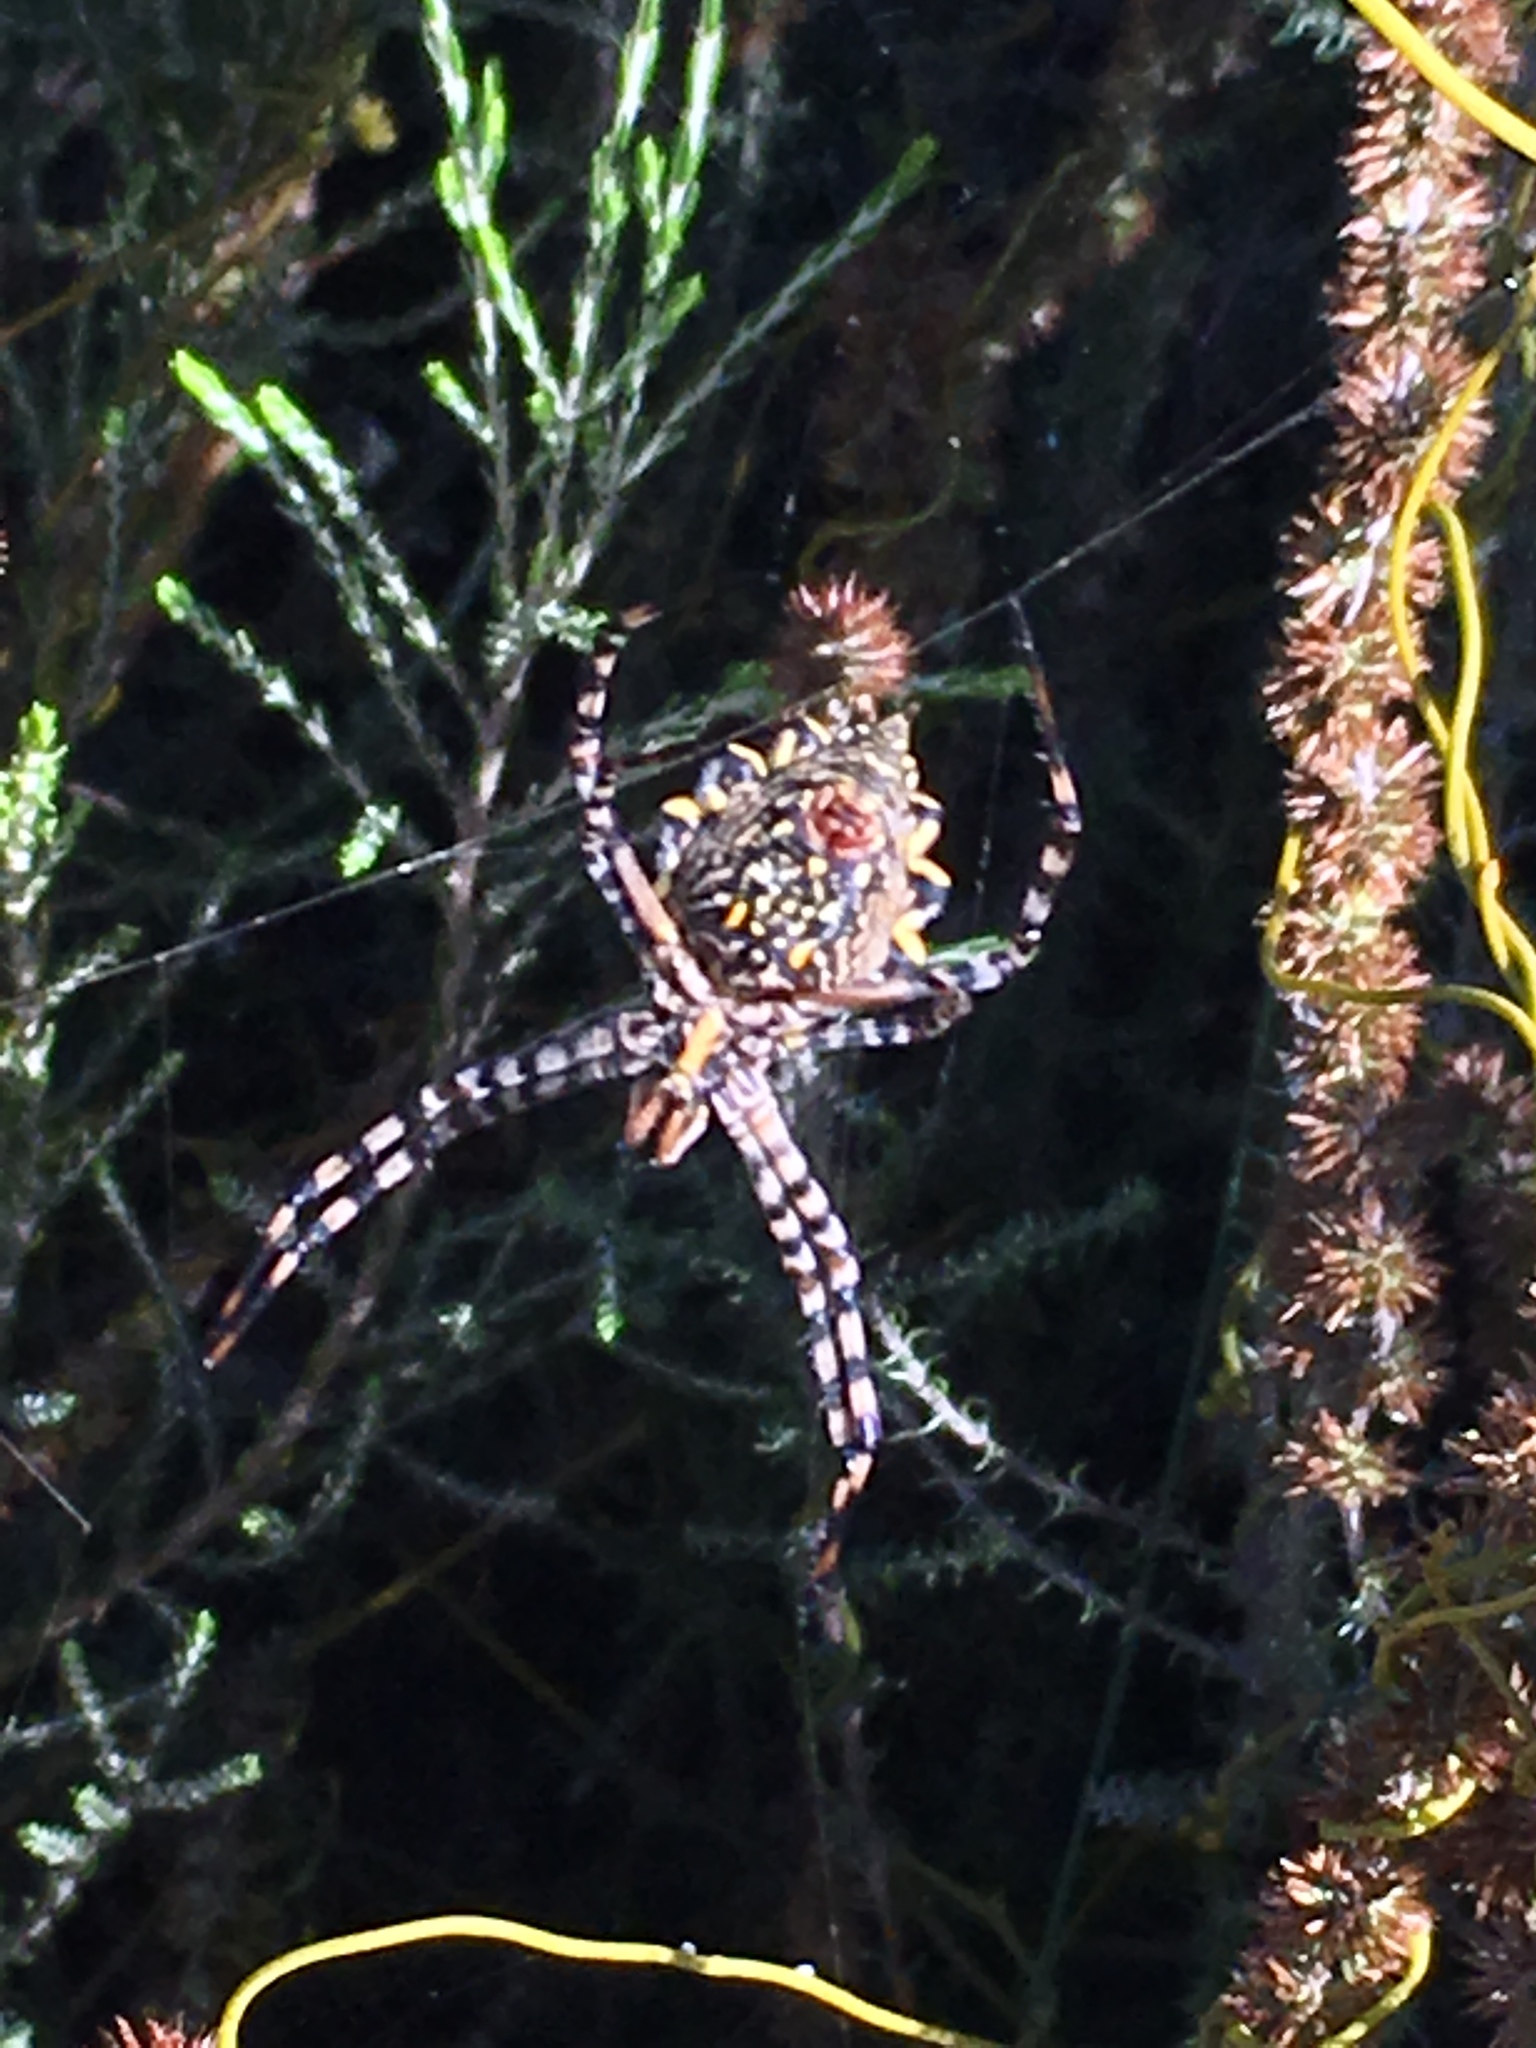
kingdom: Animalia
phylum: Arthropoda
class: Arachnida
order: Araneae
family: Araneidae
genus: Argiope
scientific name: Argiope australis
